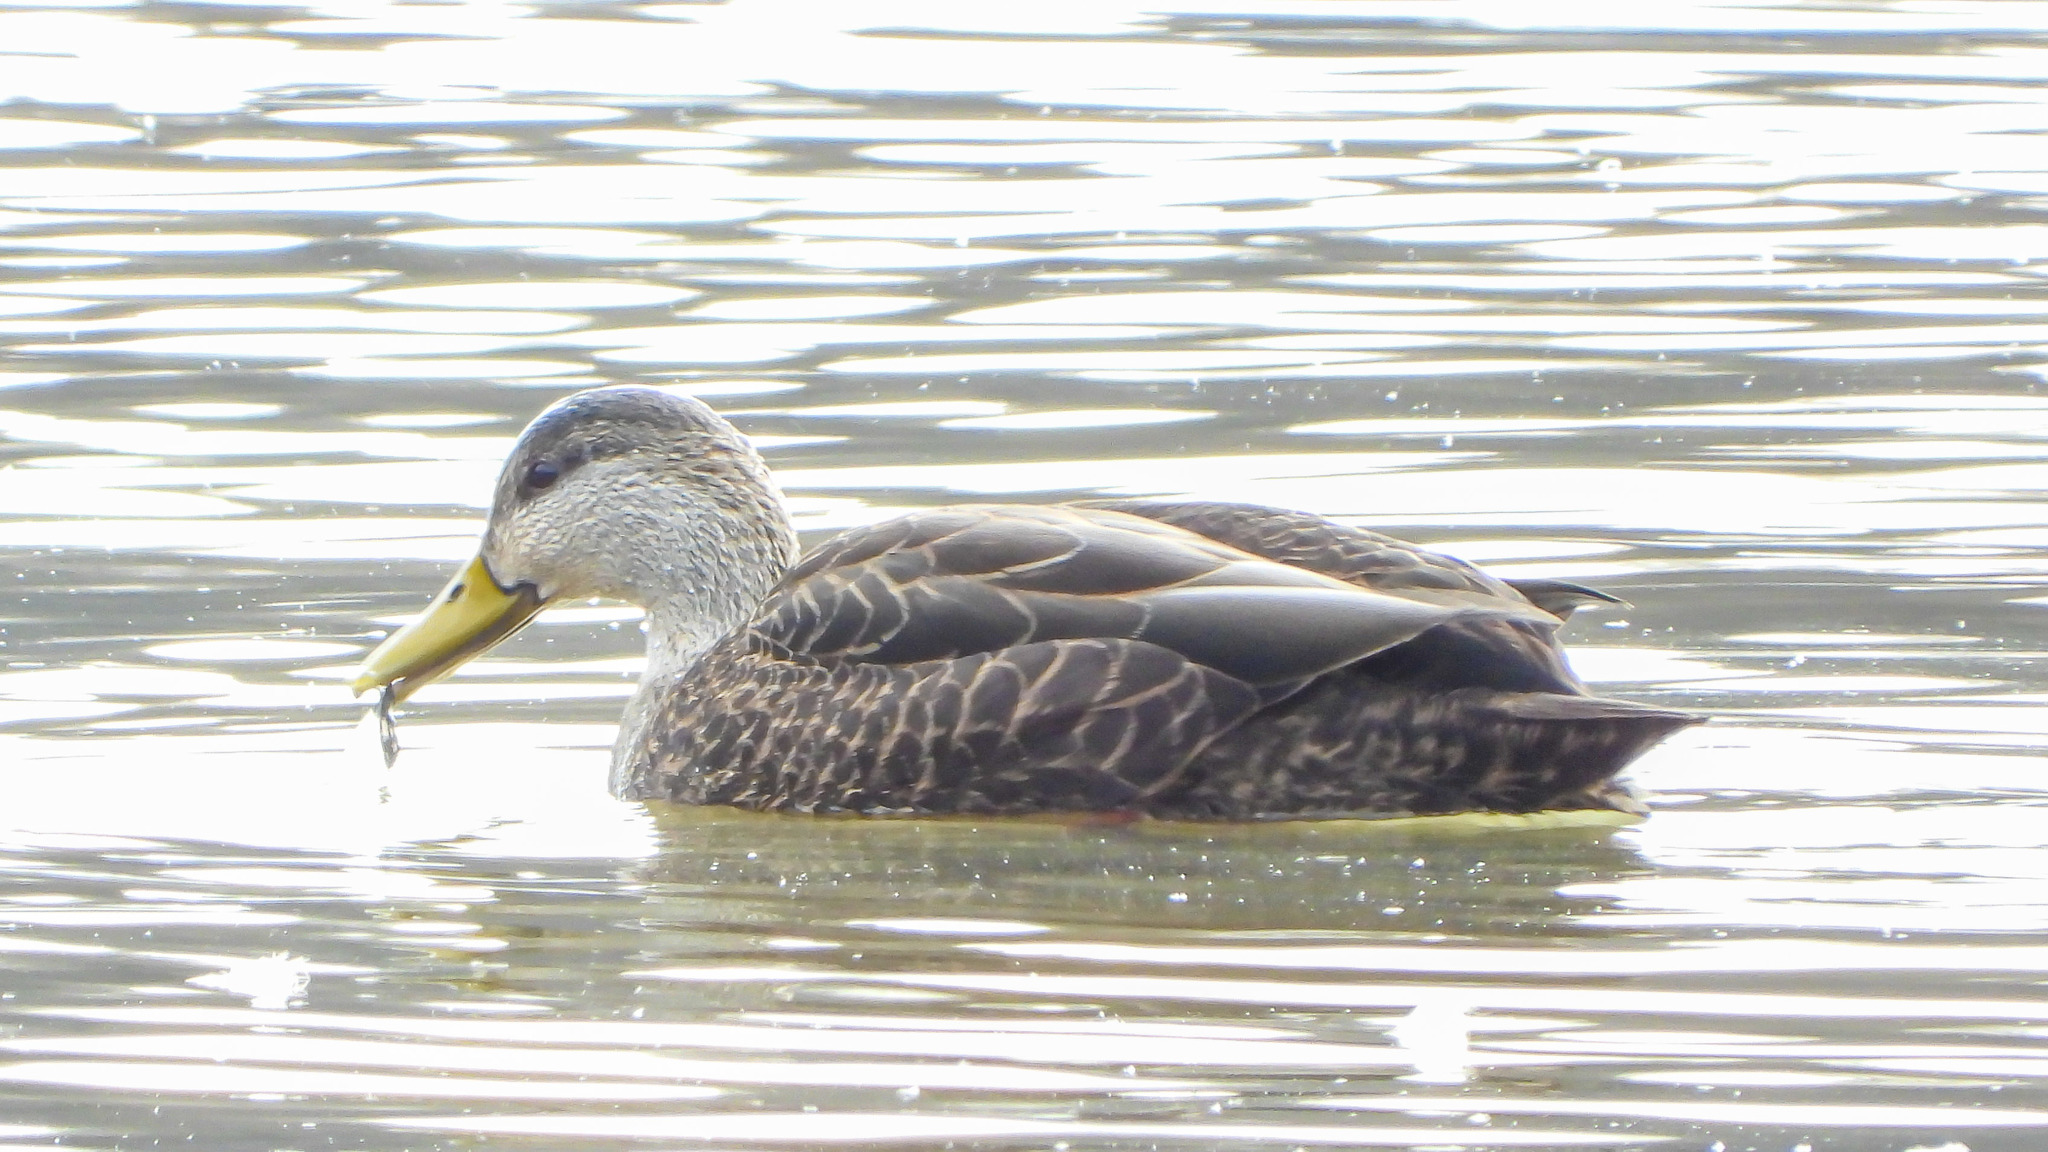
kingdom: Animalia
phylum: Chordata
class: Aves
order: Anseriformes
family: Anatidae
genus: Anas
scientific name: Anas rubripes
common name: American black duck
